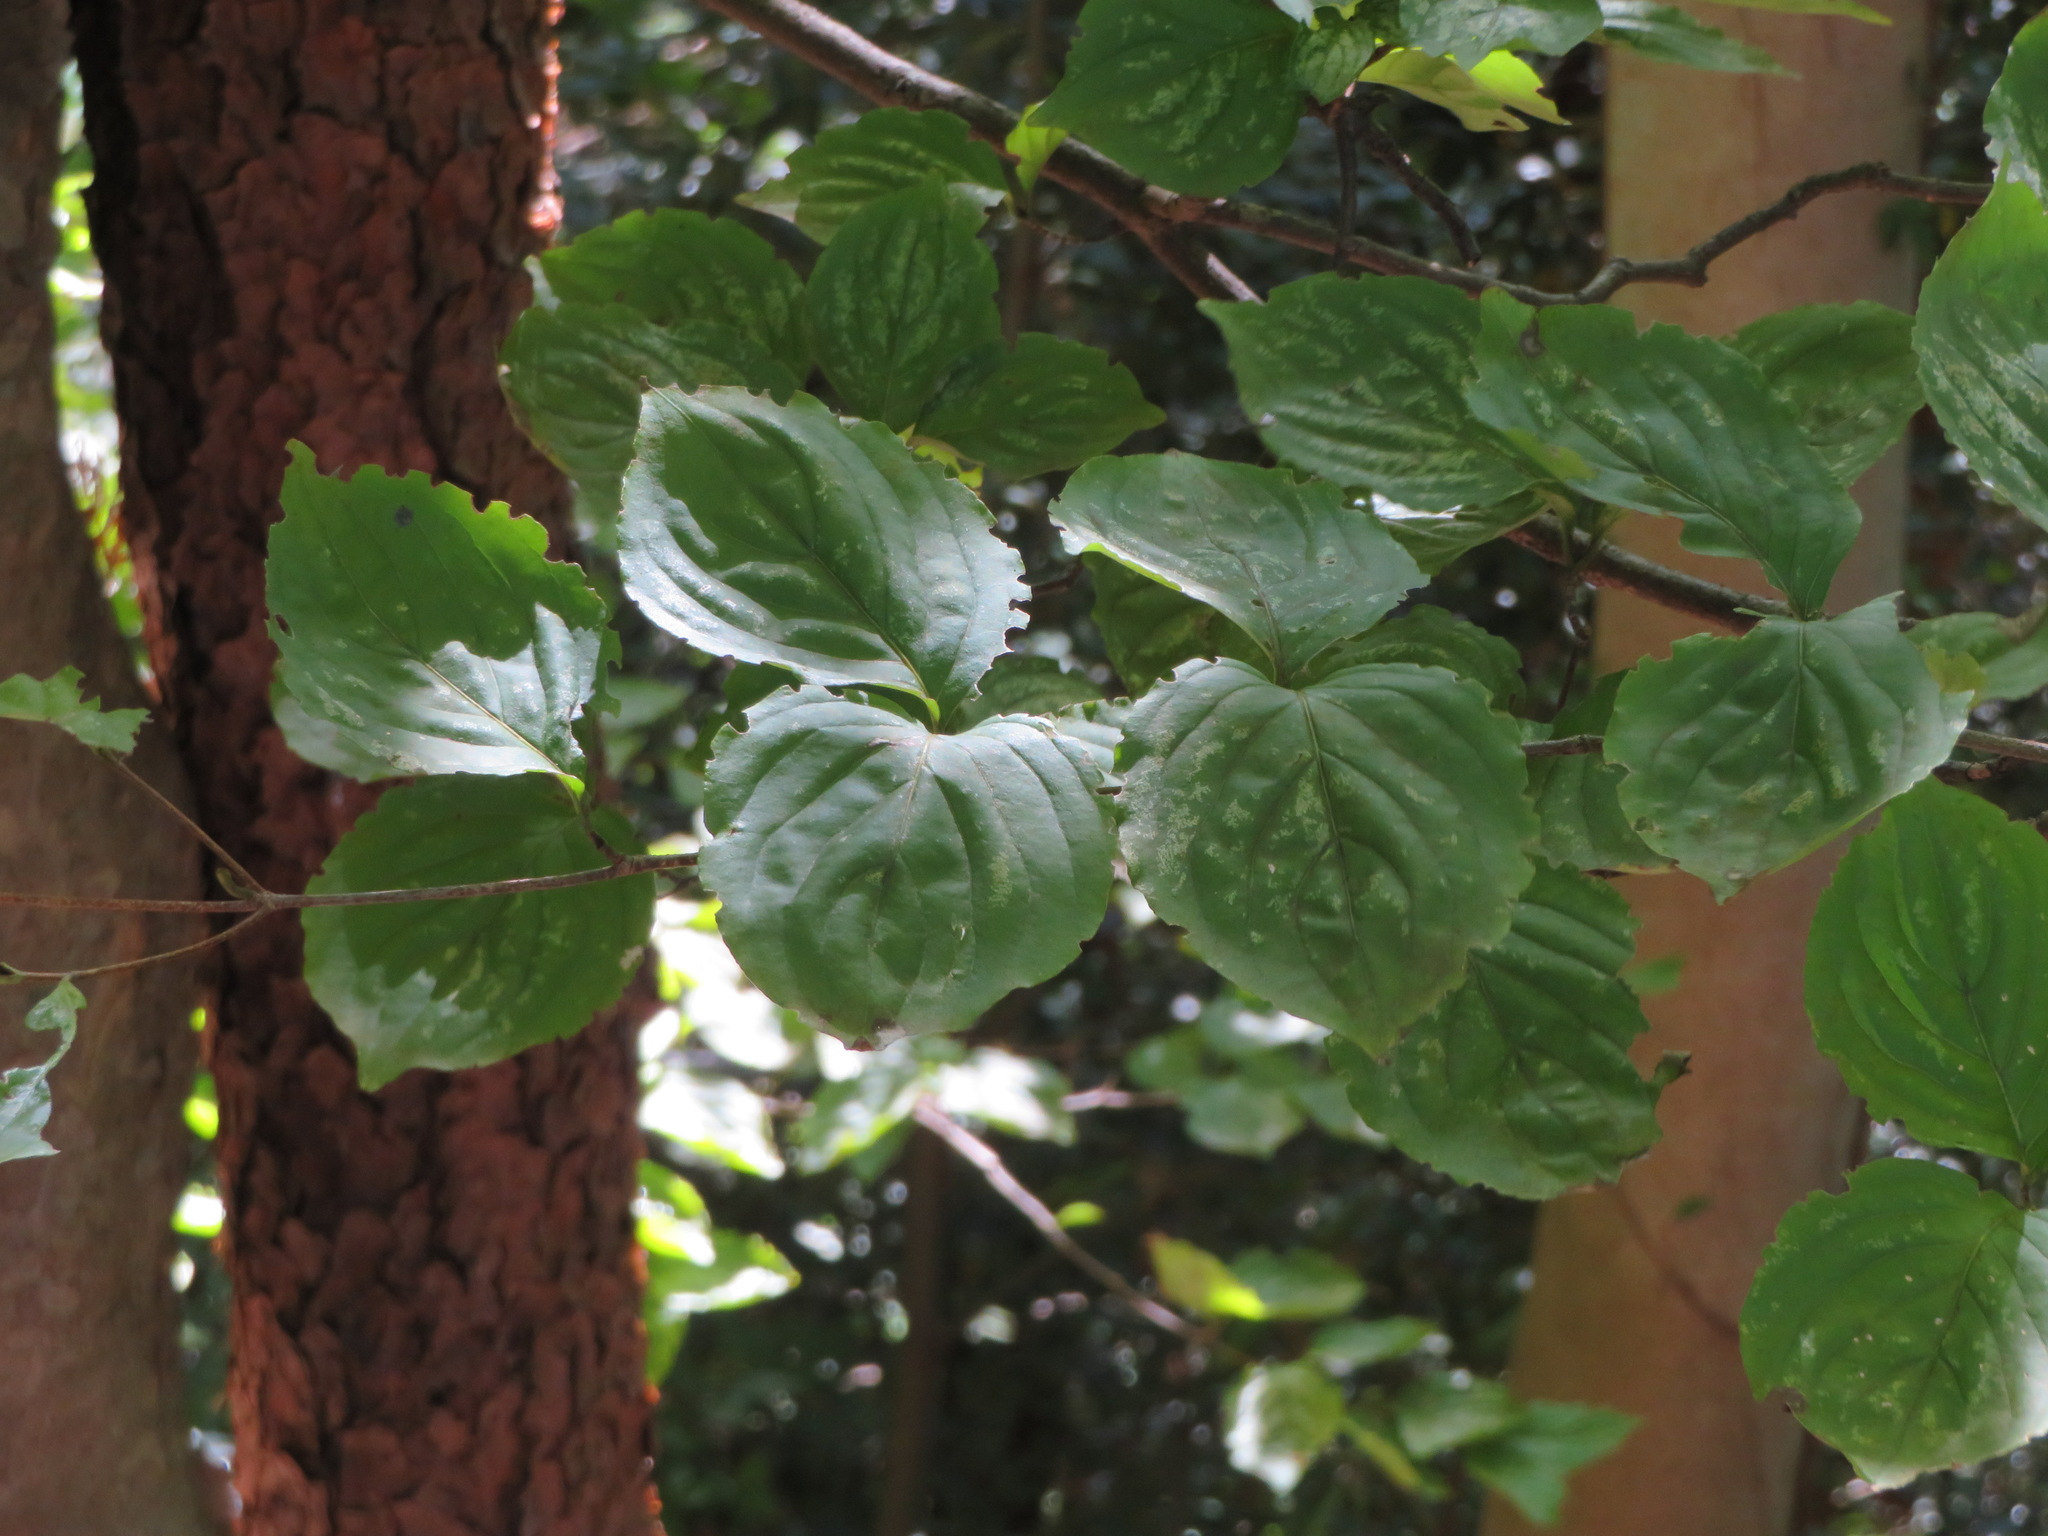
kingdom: Plantae
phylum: Tracheophyta
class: Magnoliopsida
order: Cornales
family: Cornaceae
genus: Cornus
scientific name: Cornus kousa
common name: Japanese dogwood
